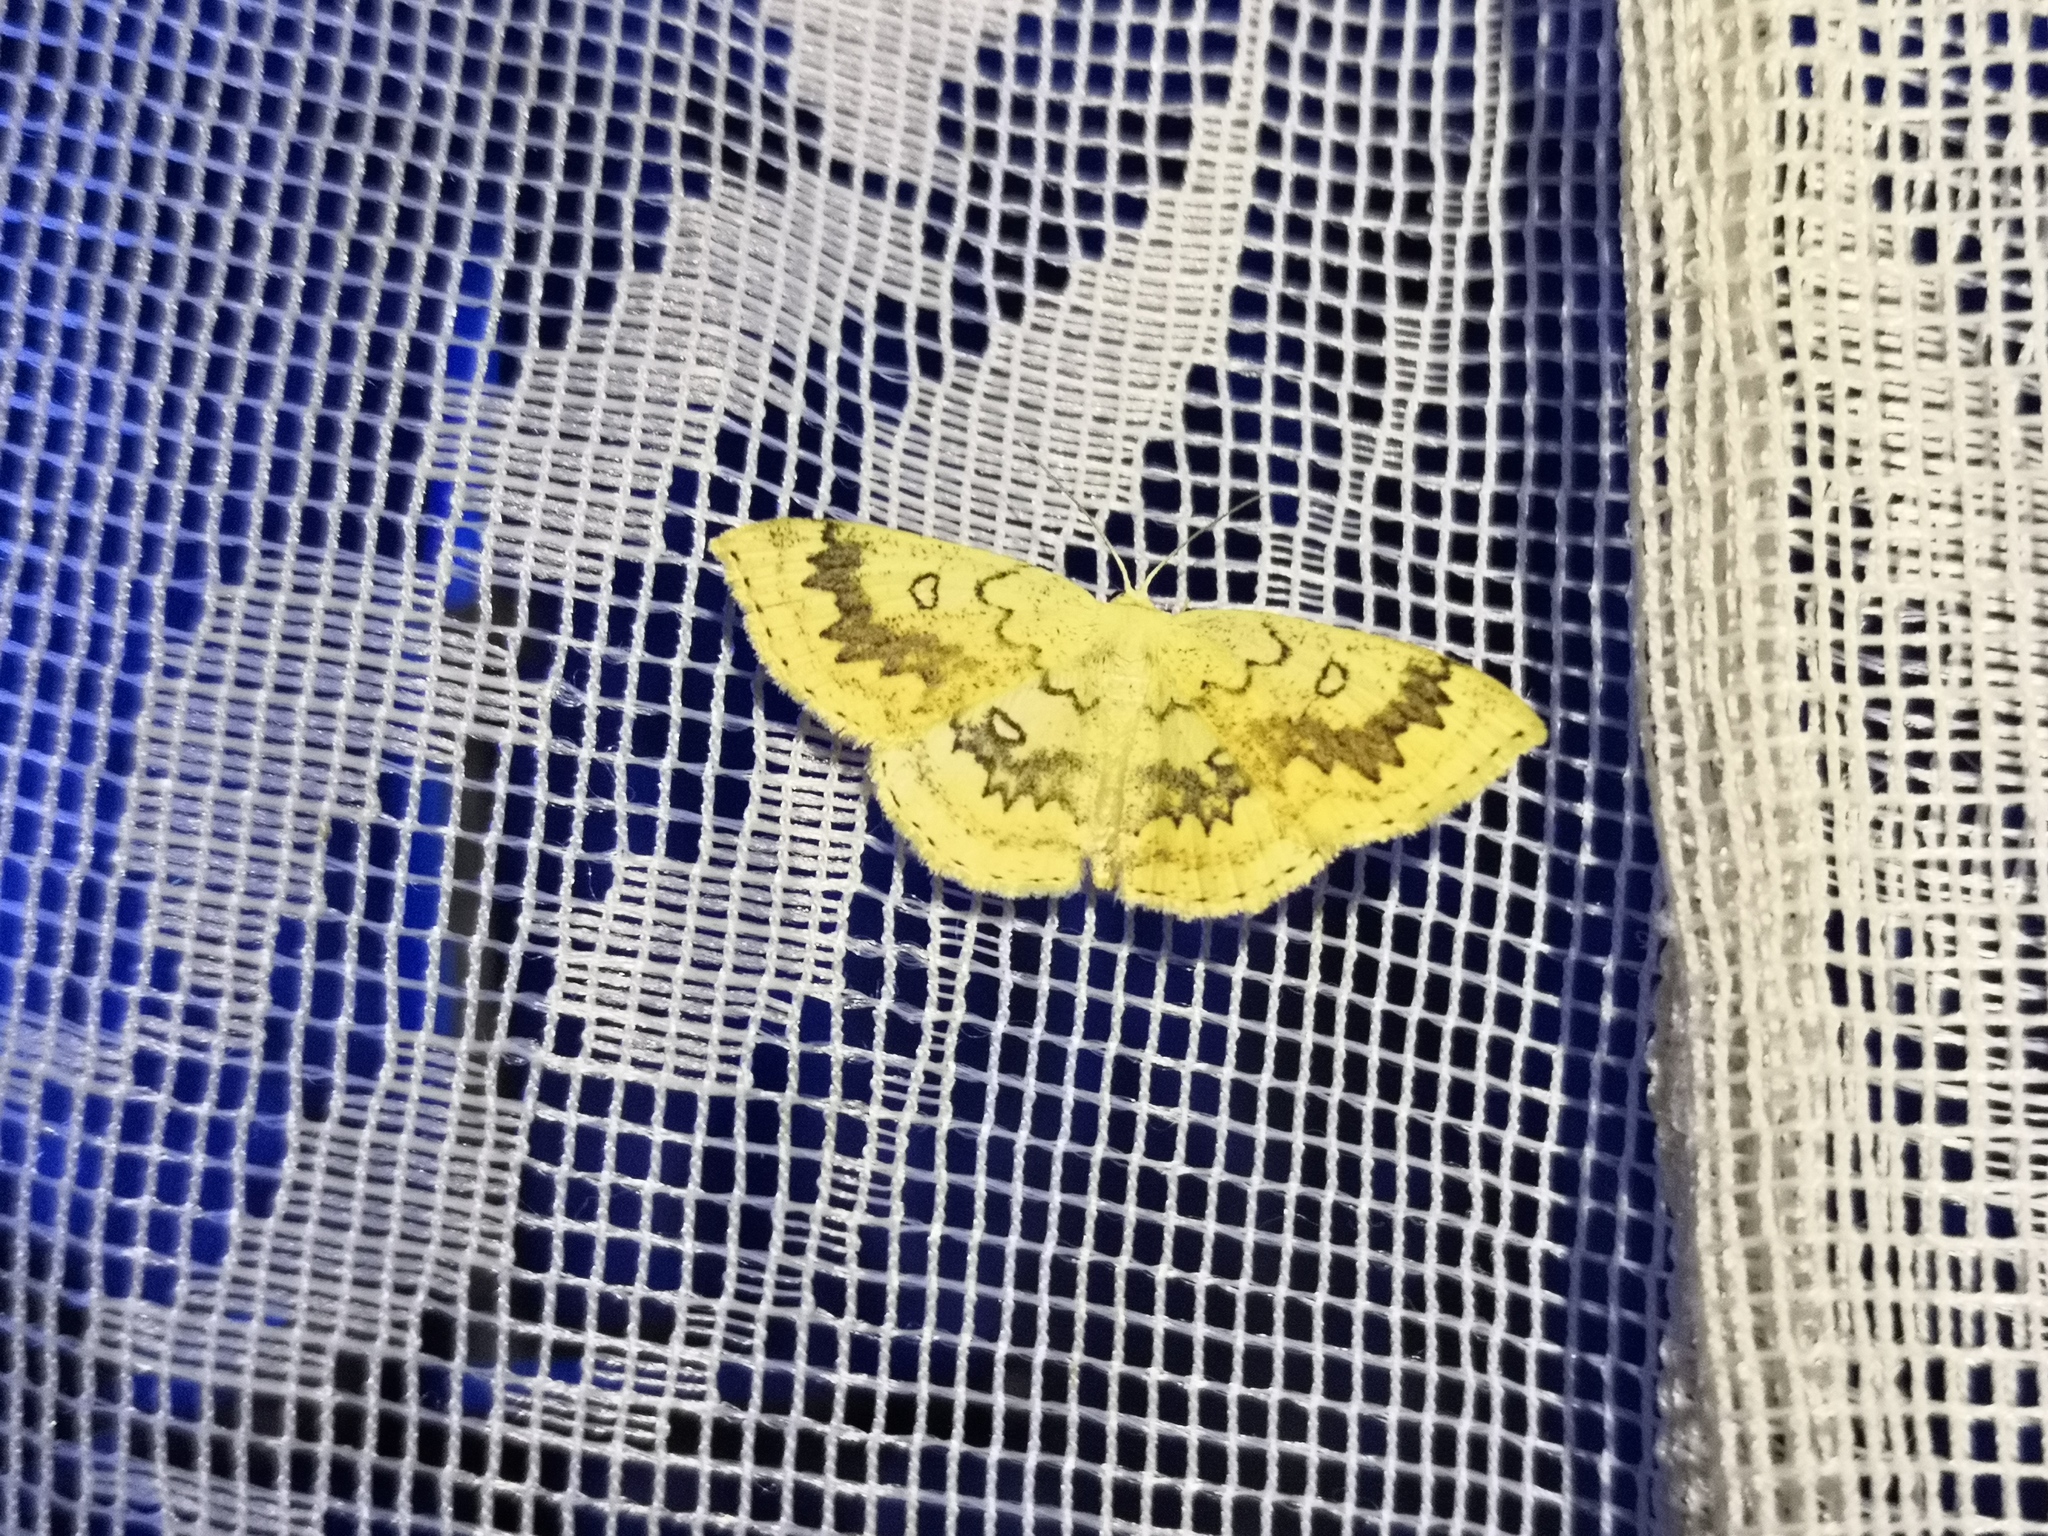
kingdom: Animalia
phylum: Arthropoda
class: Insecta
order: Lepidoptera
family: Geometridae
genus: Cyclophora
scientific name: Cyclophora annularia
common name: Mocha
